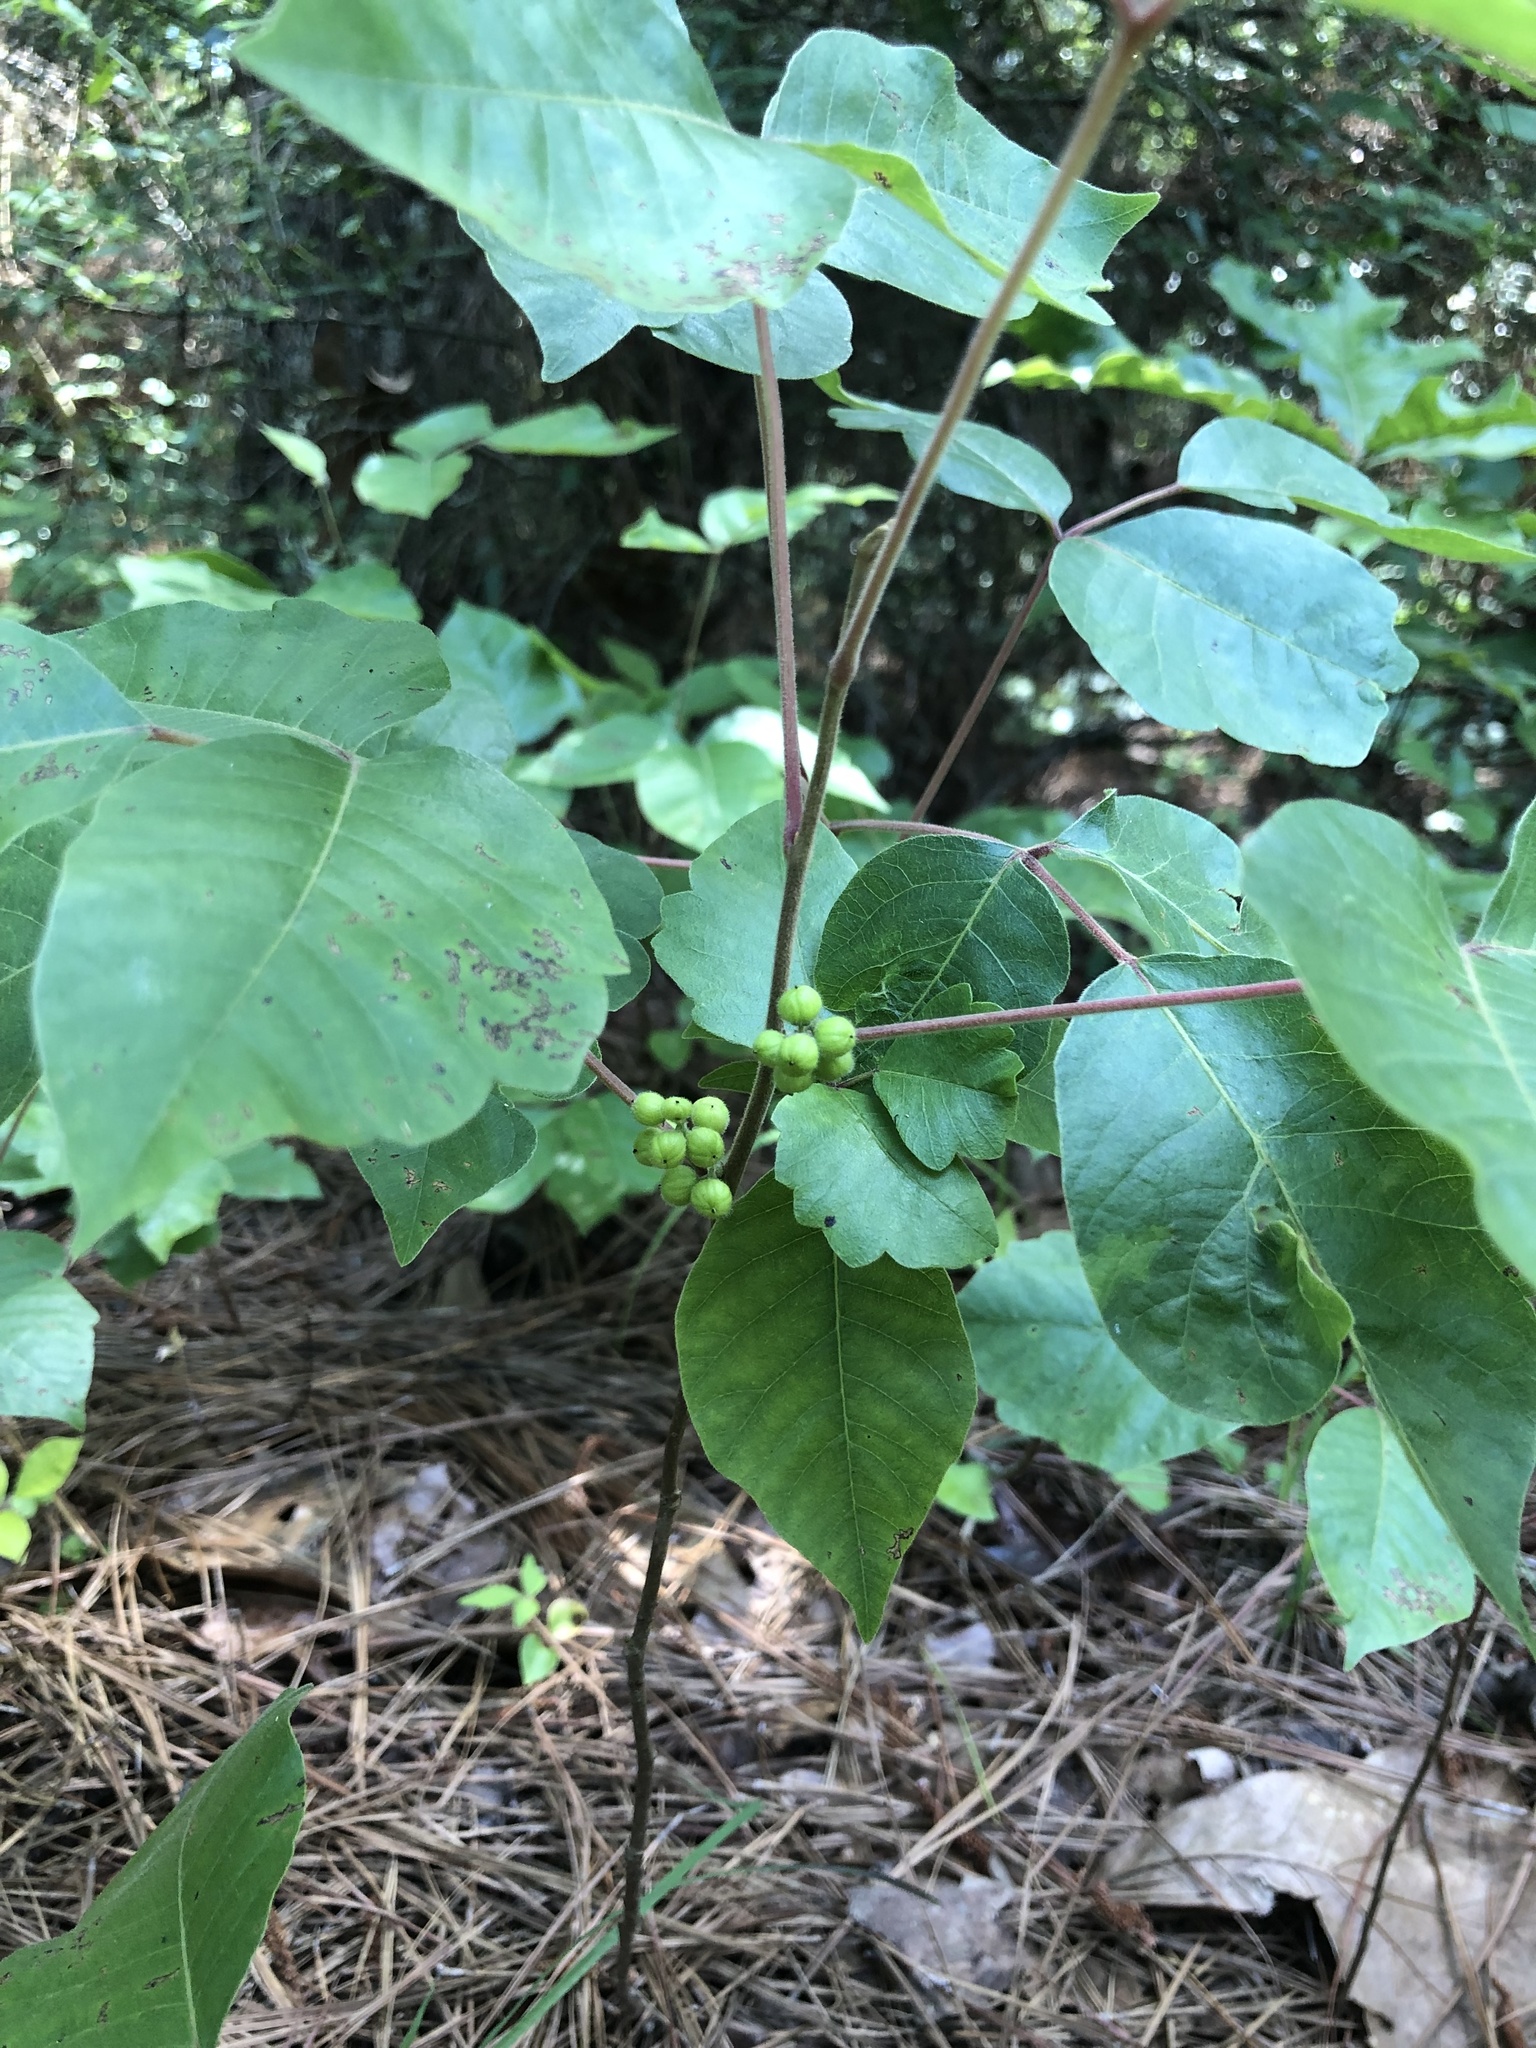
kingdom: Plantae
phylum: Tracheophyta
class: Magnoliopsida
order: Sapindales
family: Anacardiaceae
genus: Toxicodendron
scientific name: Toxicodendron pubescens
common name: Eastern poison-oak
